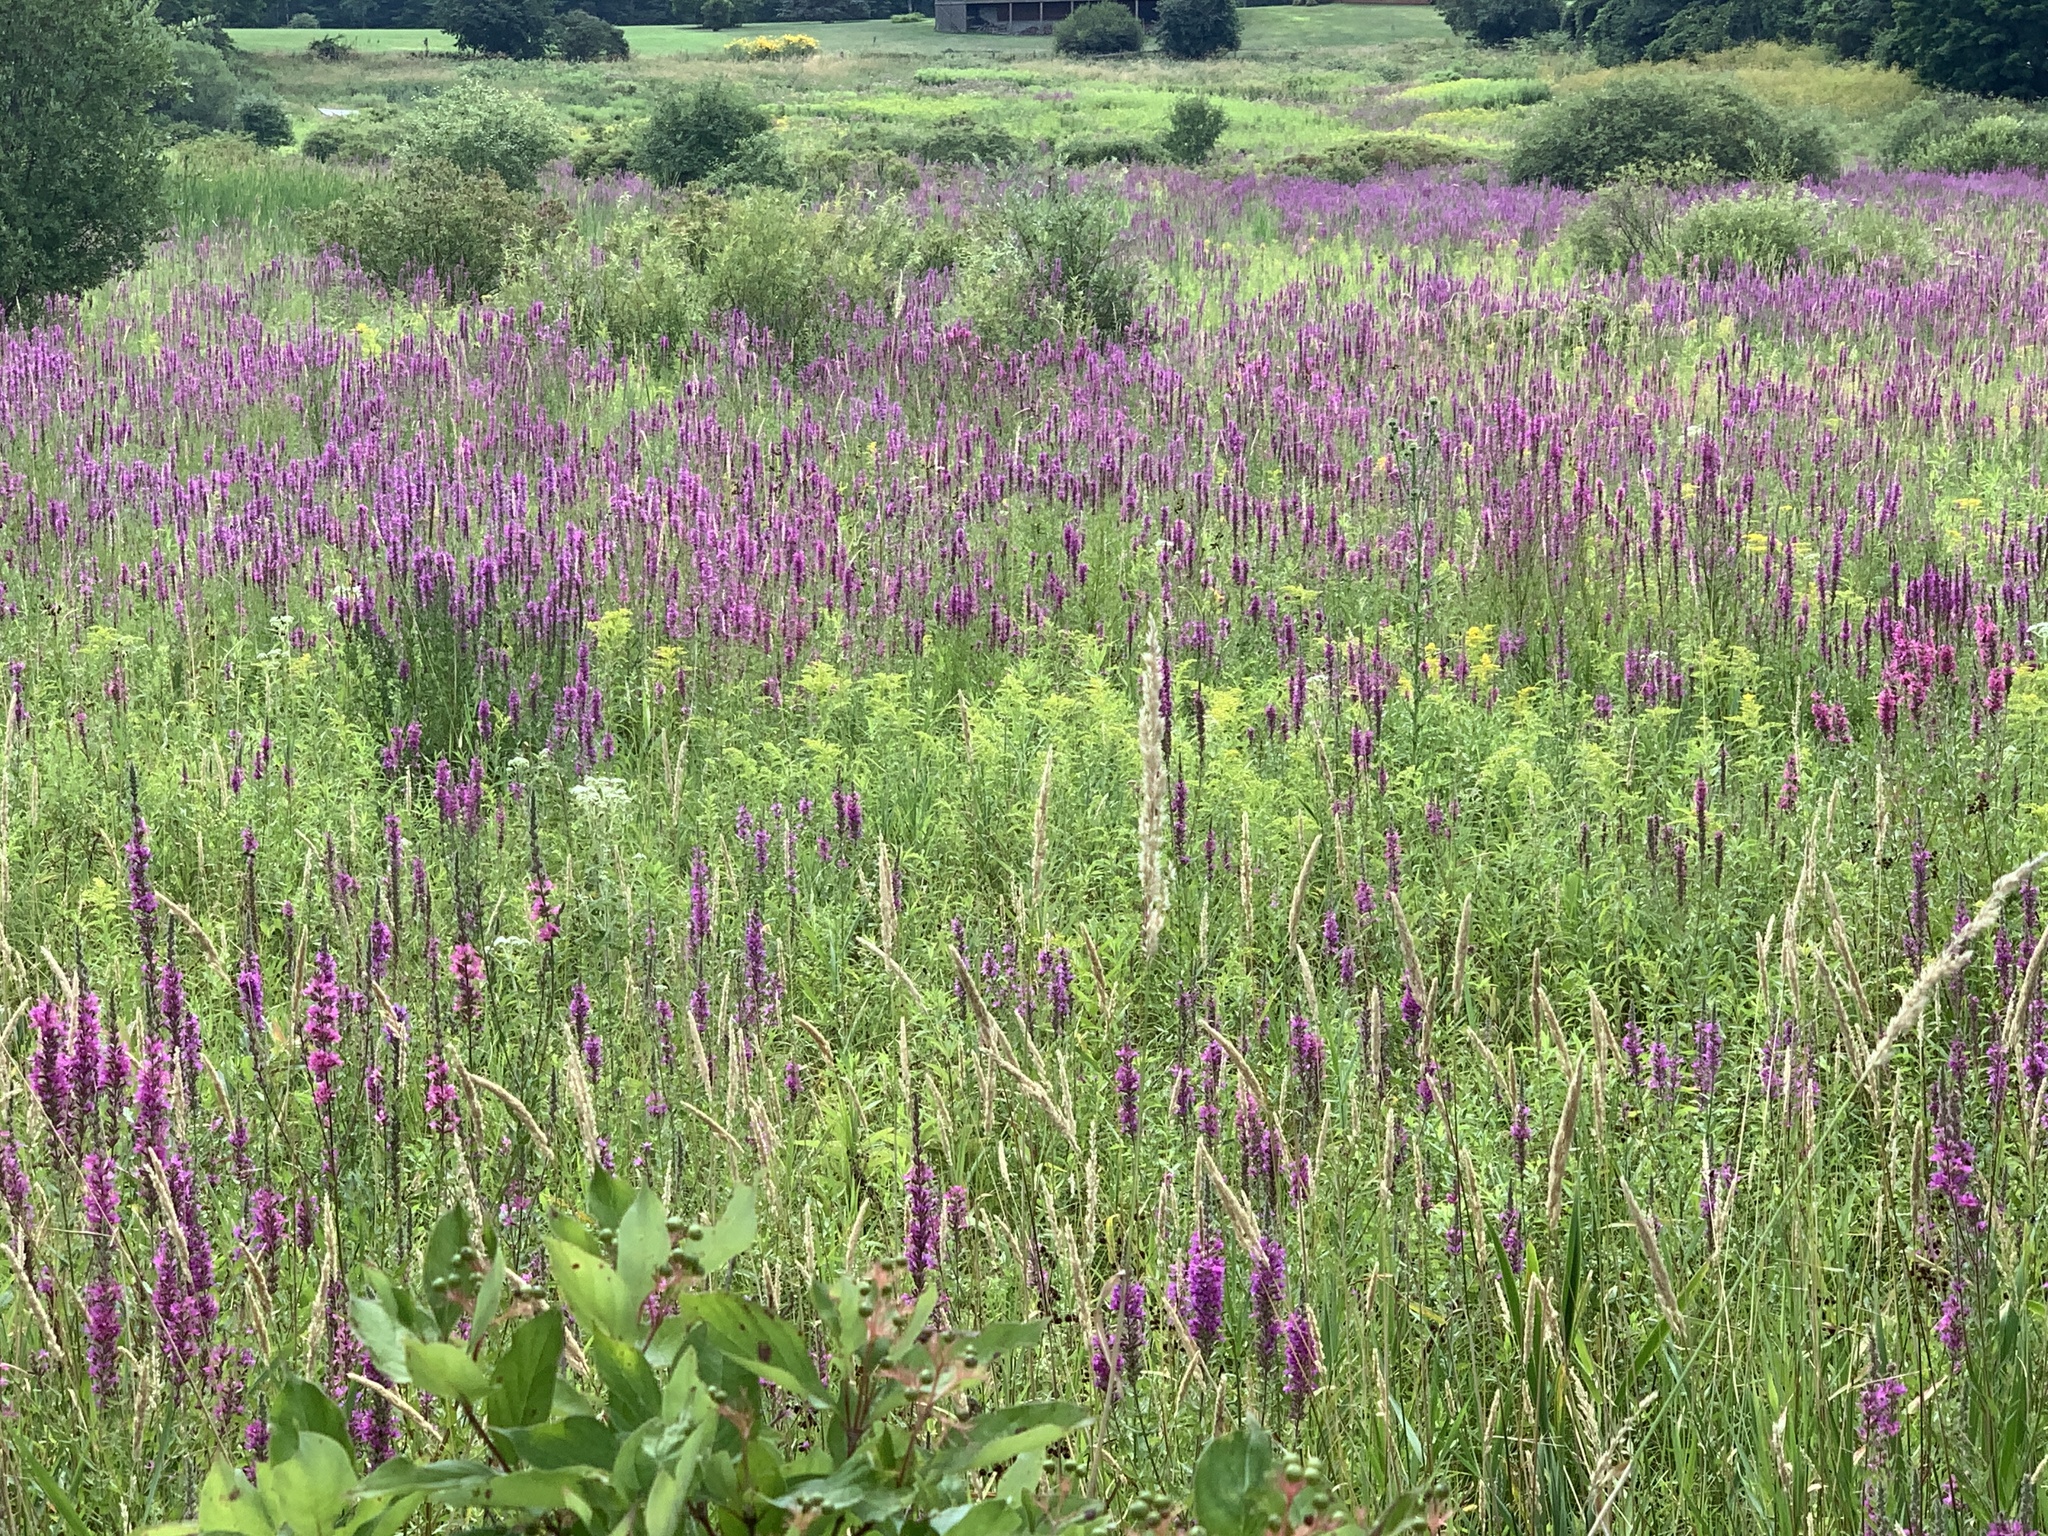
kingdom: Plantae
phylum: Tracheophyta
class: Magnoliopsida
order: Myrtales
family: Lythraceae
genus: Lythrum
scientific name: Lythrum salicaria
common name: Purple loosestrife
